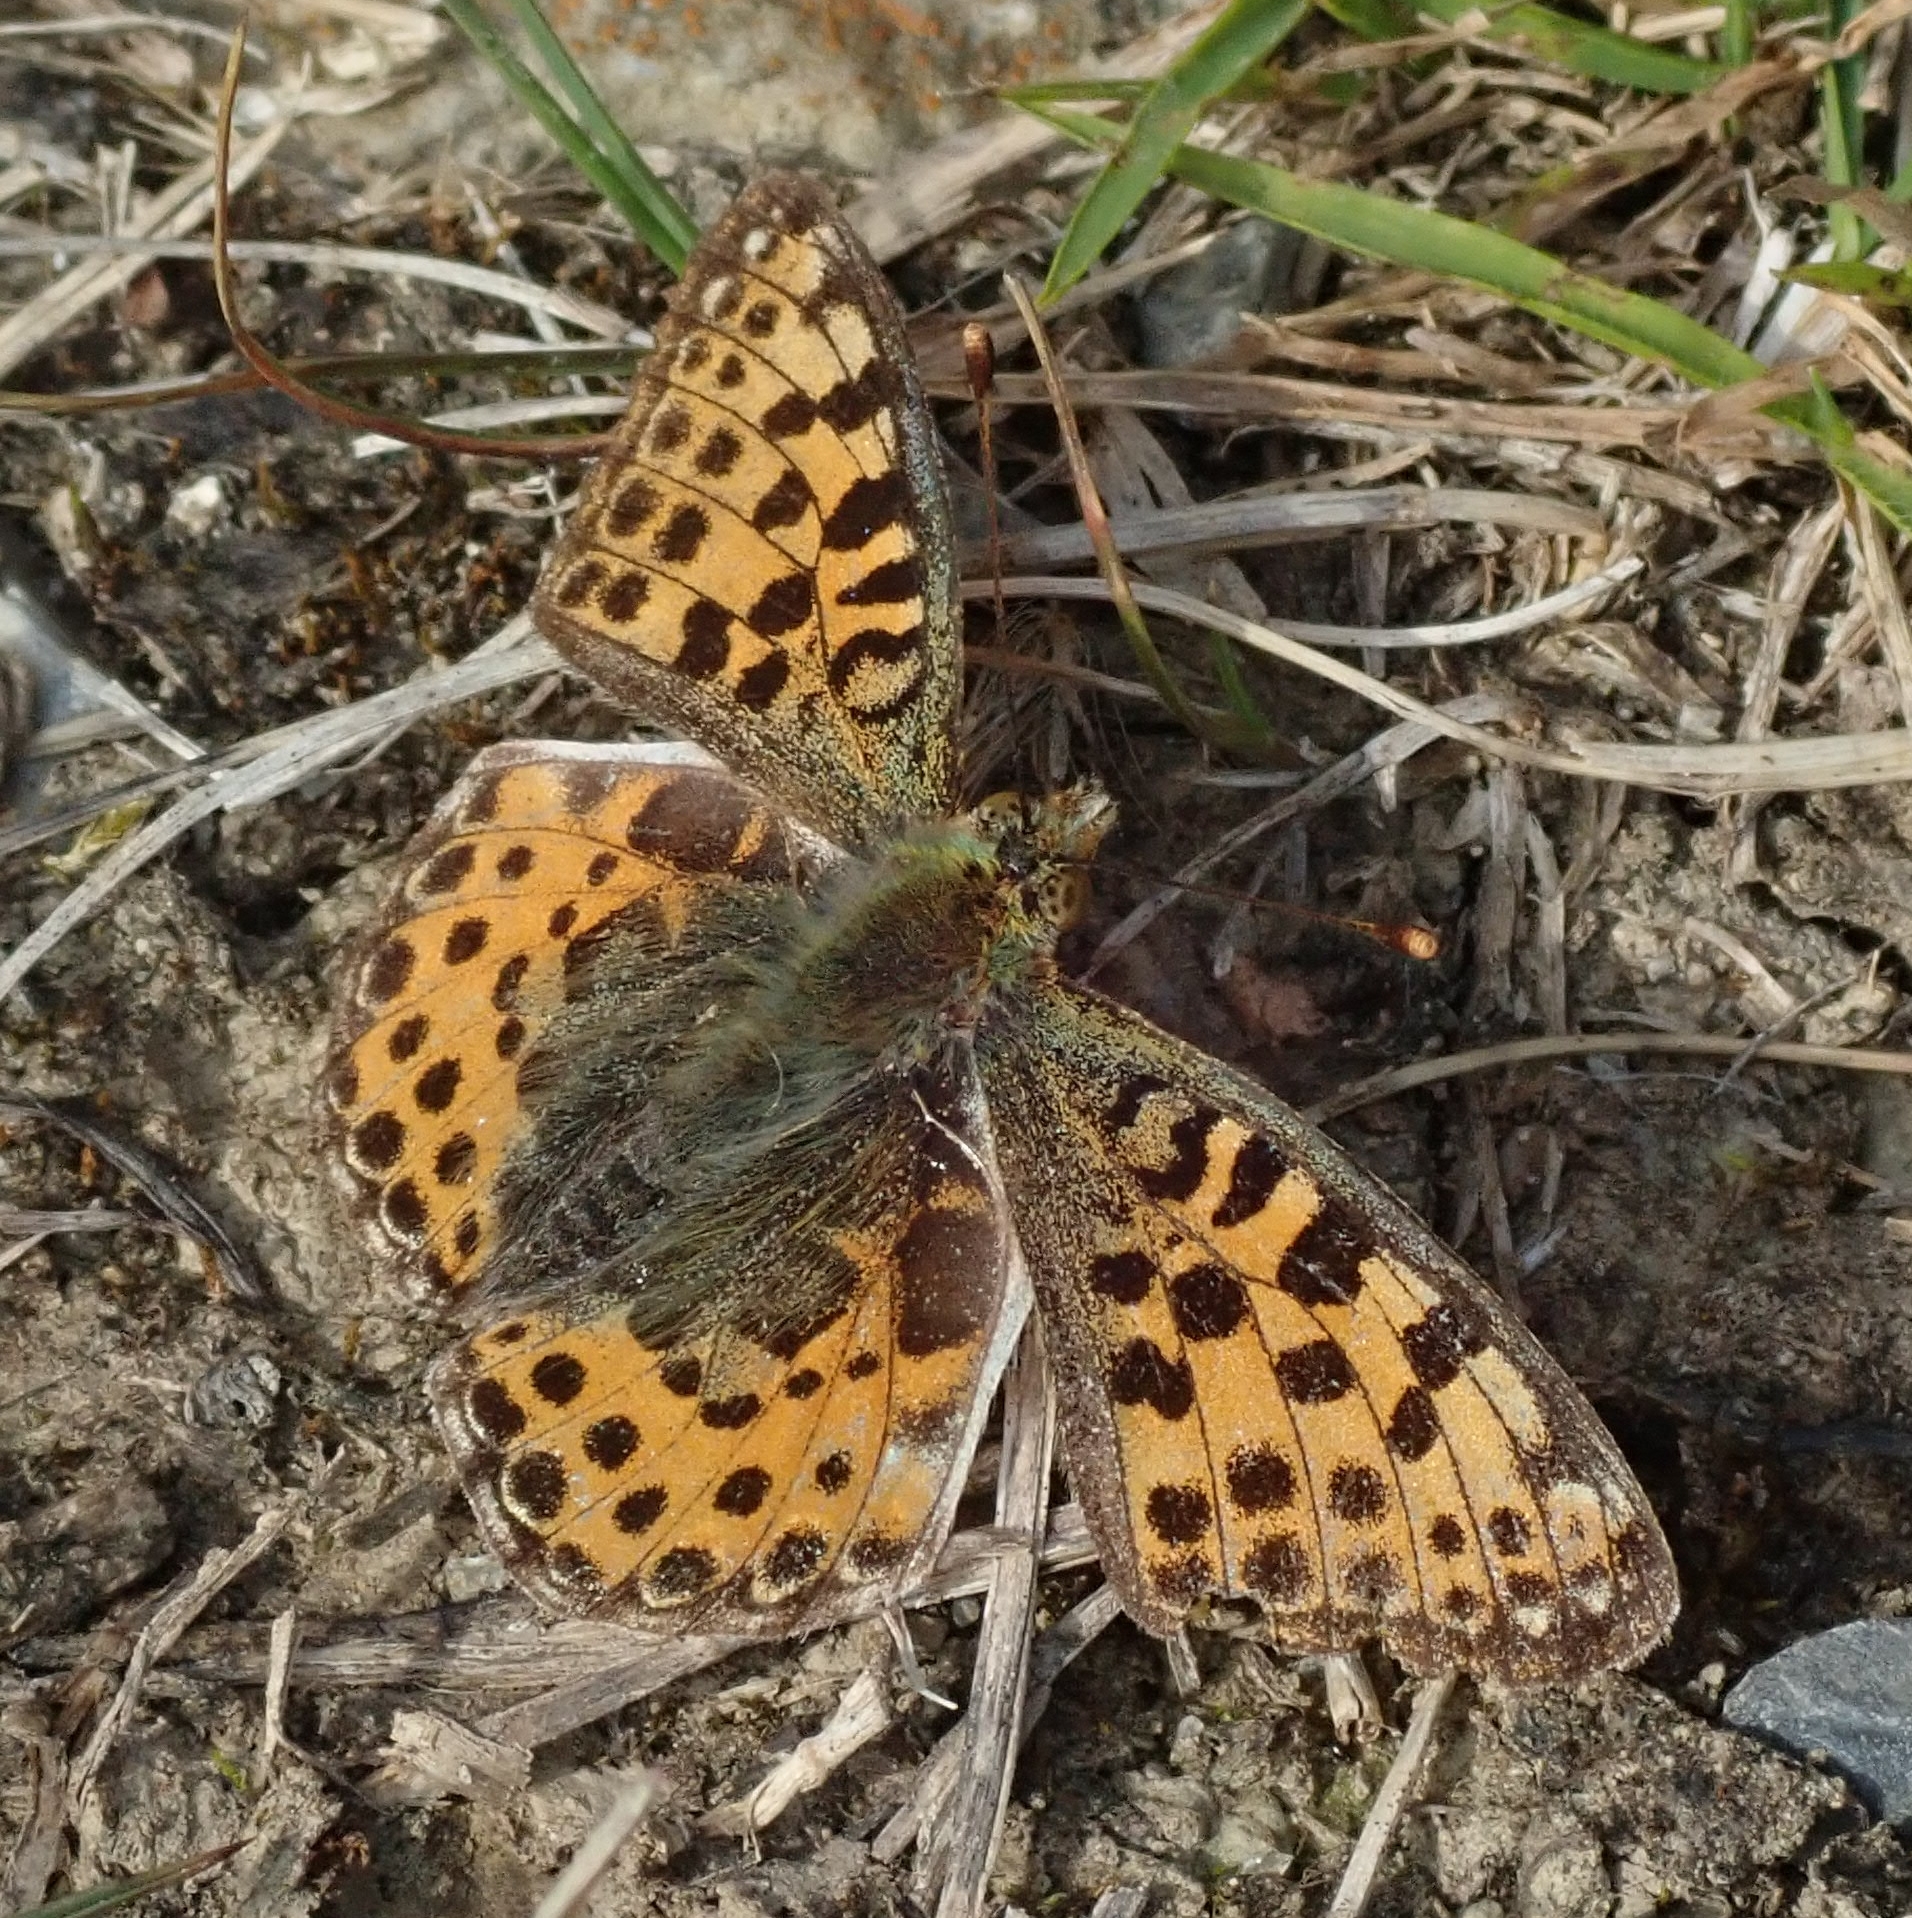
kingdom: Animalia
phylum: Arthropoda
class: Insecta
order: Lepidoptera
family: Nymphalidae
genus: Issoria
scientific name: Issoria lathonia
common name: Queen of spain fritillary
